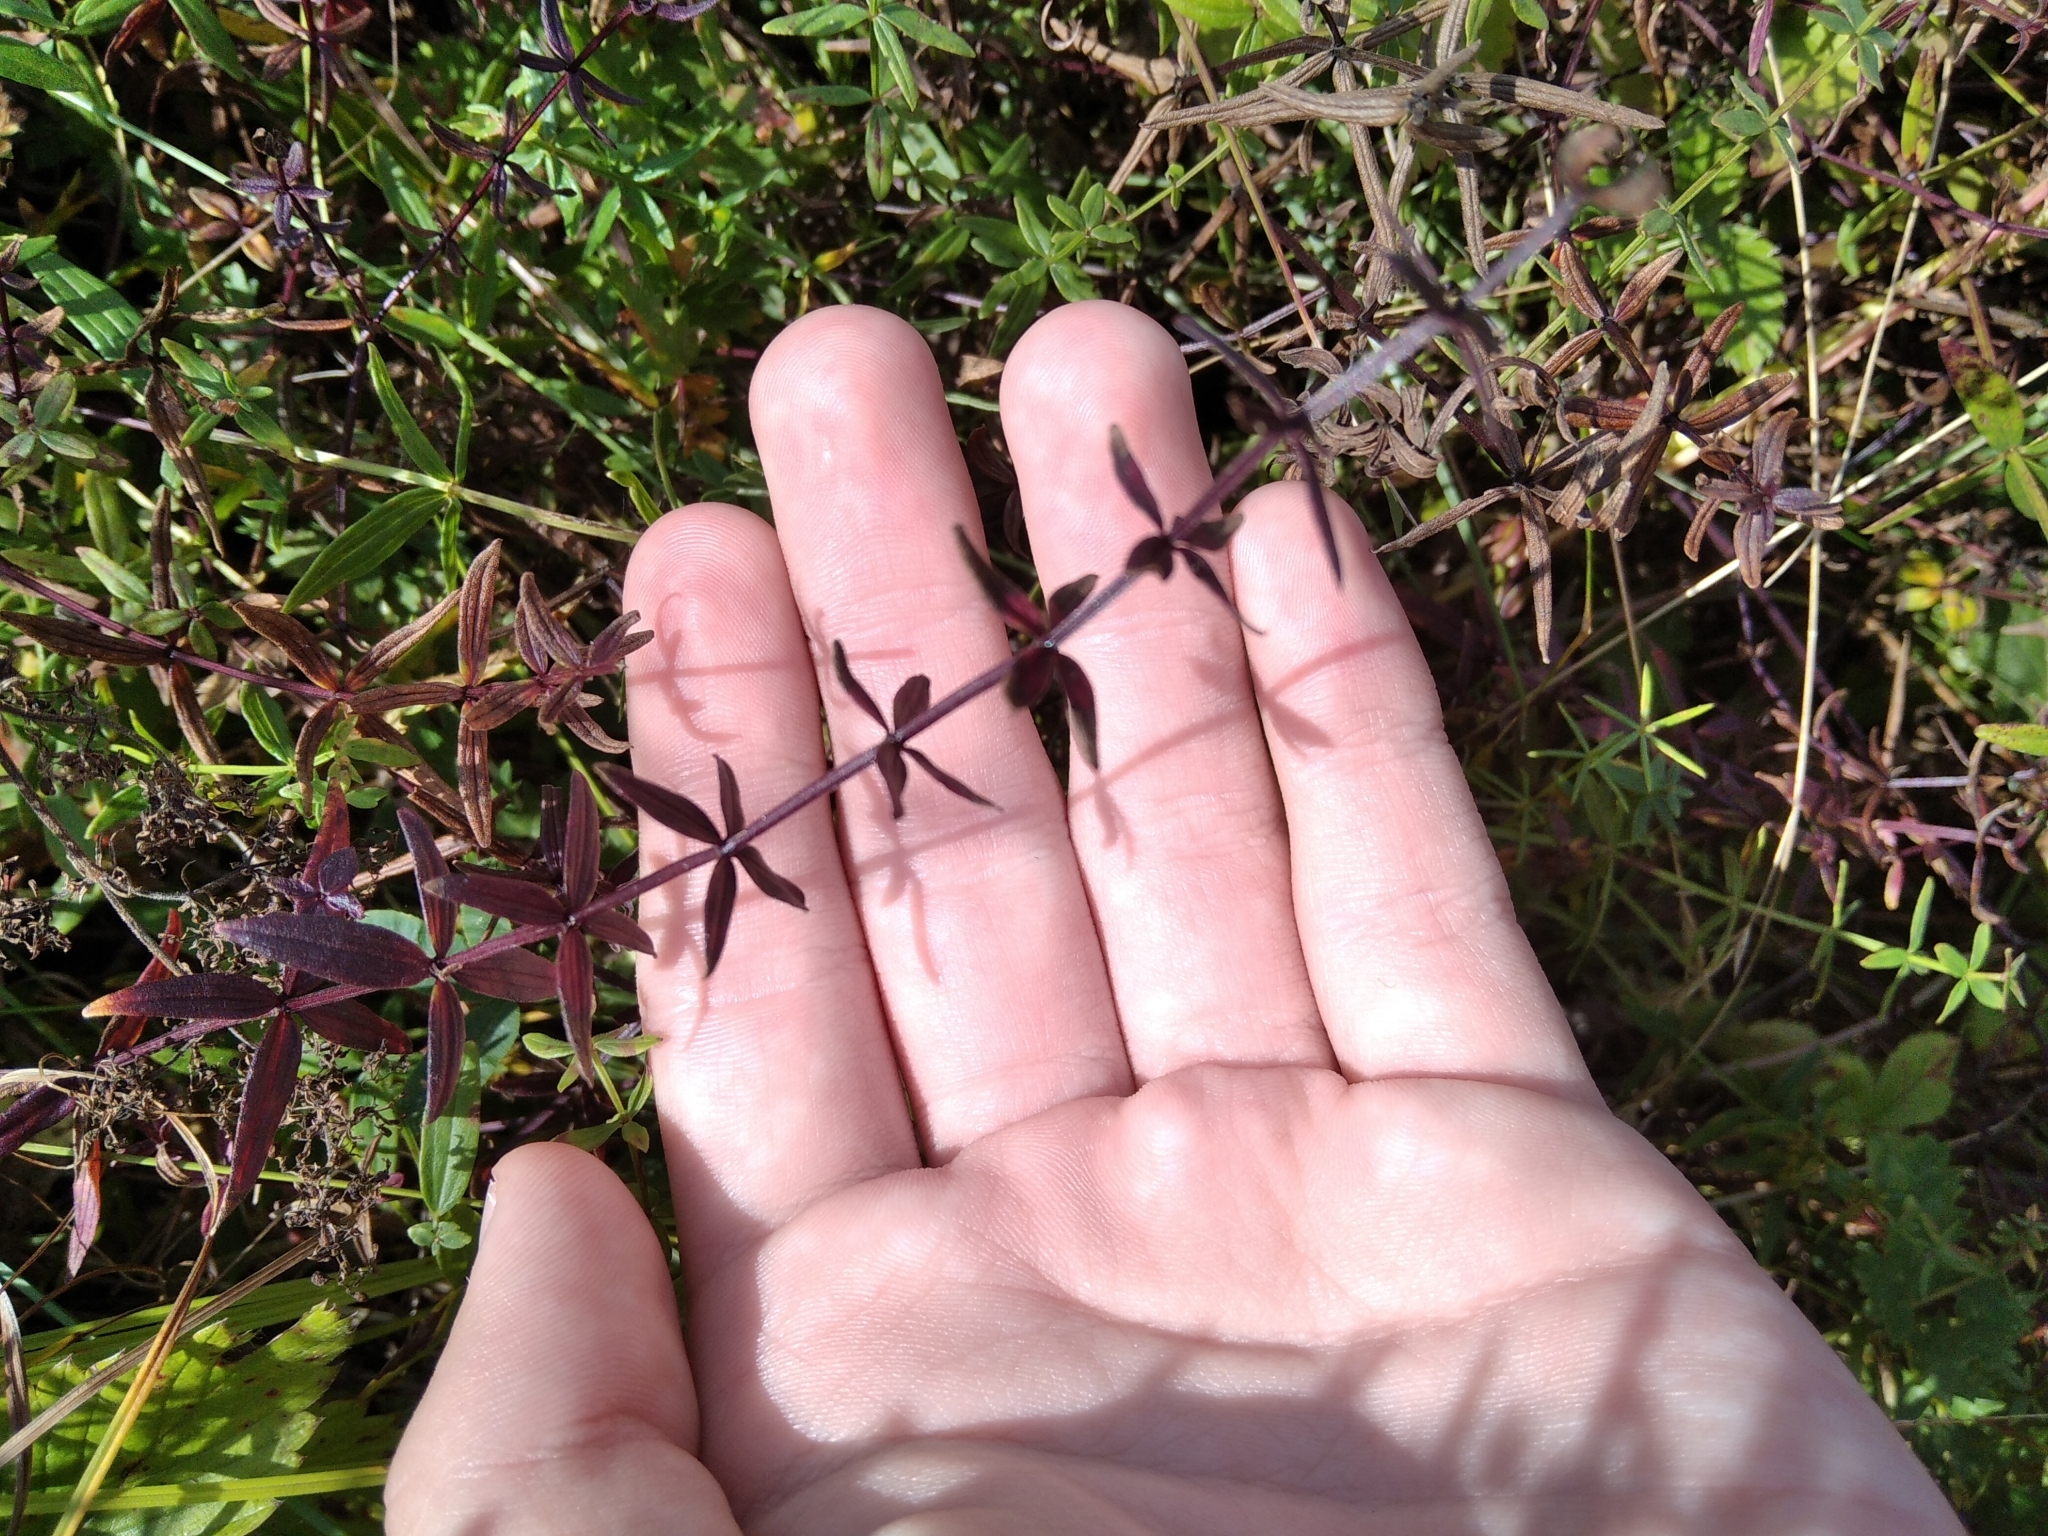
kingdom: Plantae
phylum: Tracheophyta
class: Magnoliopsida
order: Gentianales
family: Rubiaceae
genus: Galium
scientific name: Galium boreale
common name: Northern bedstraw
